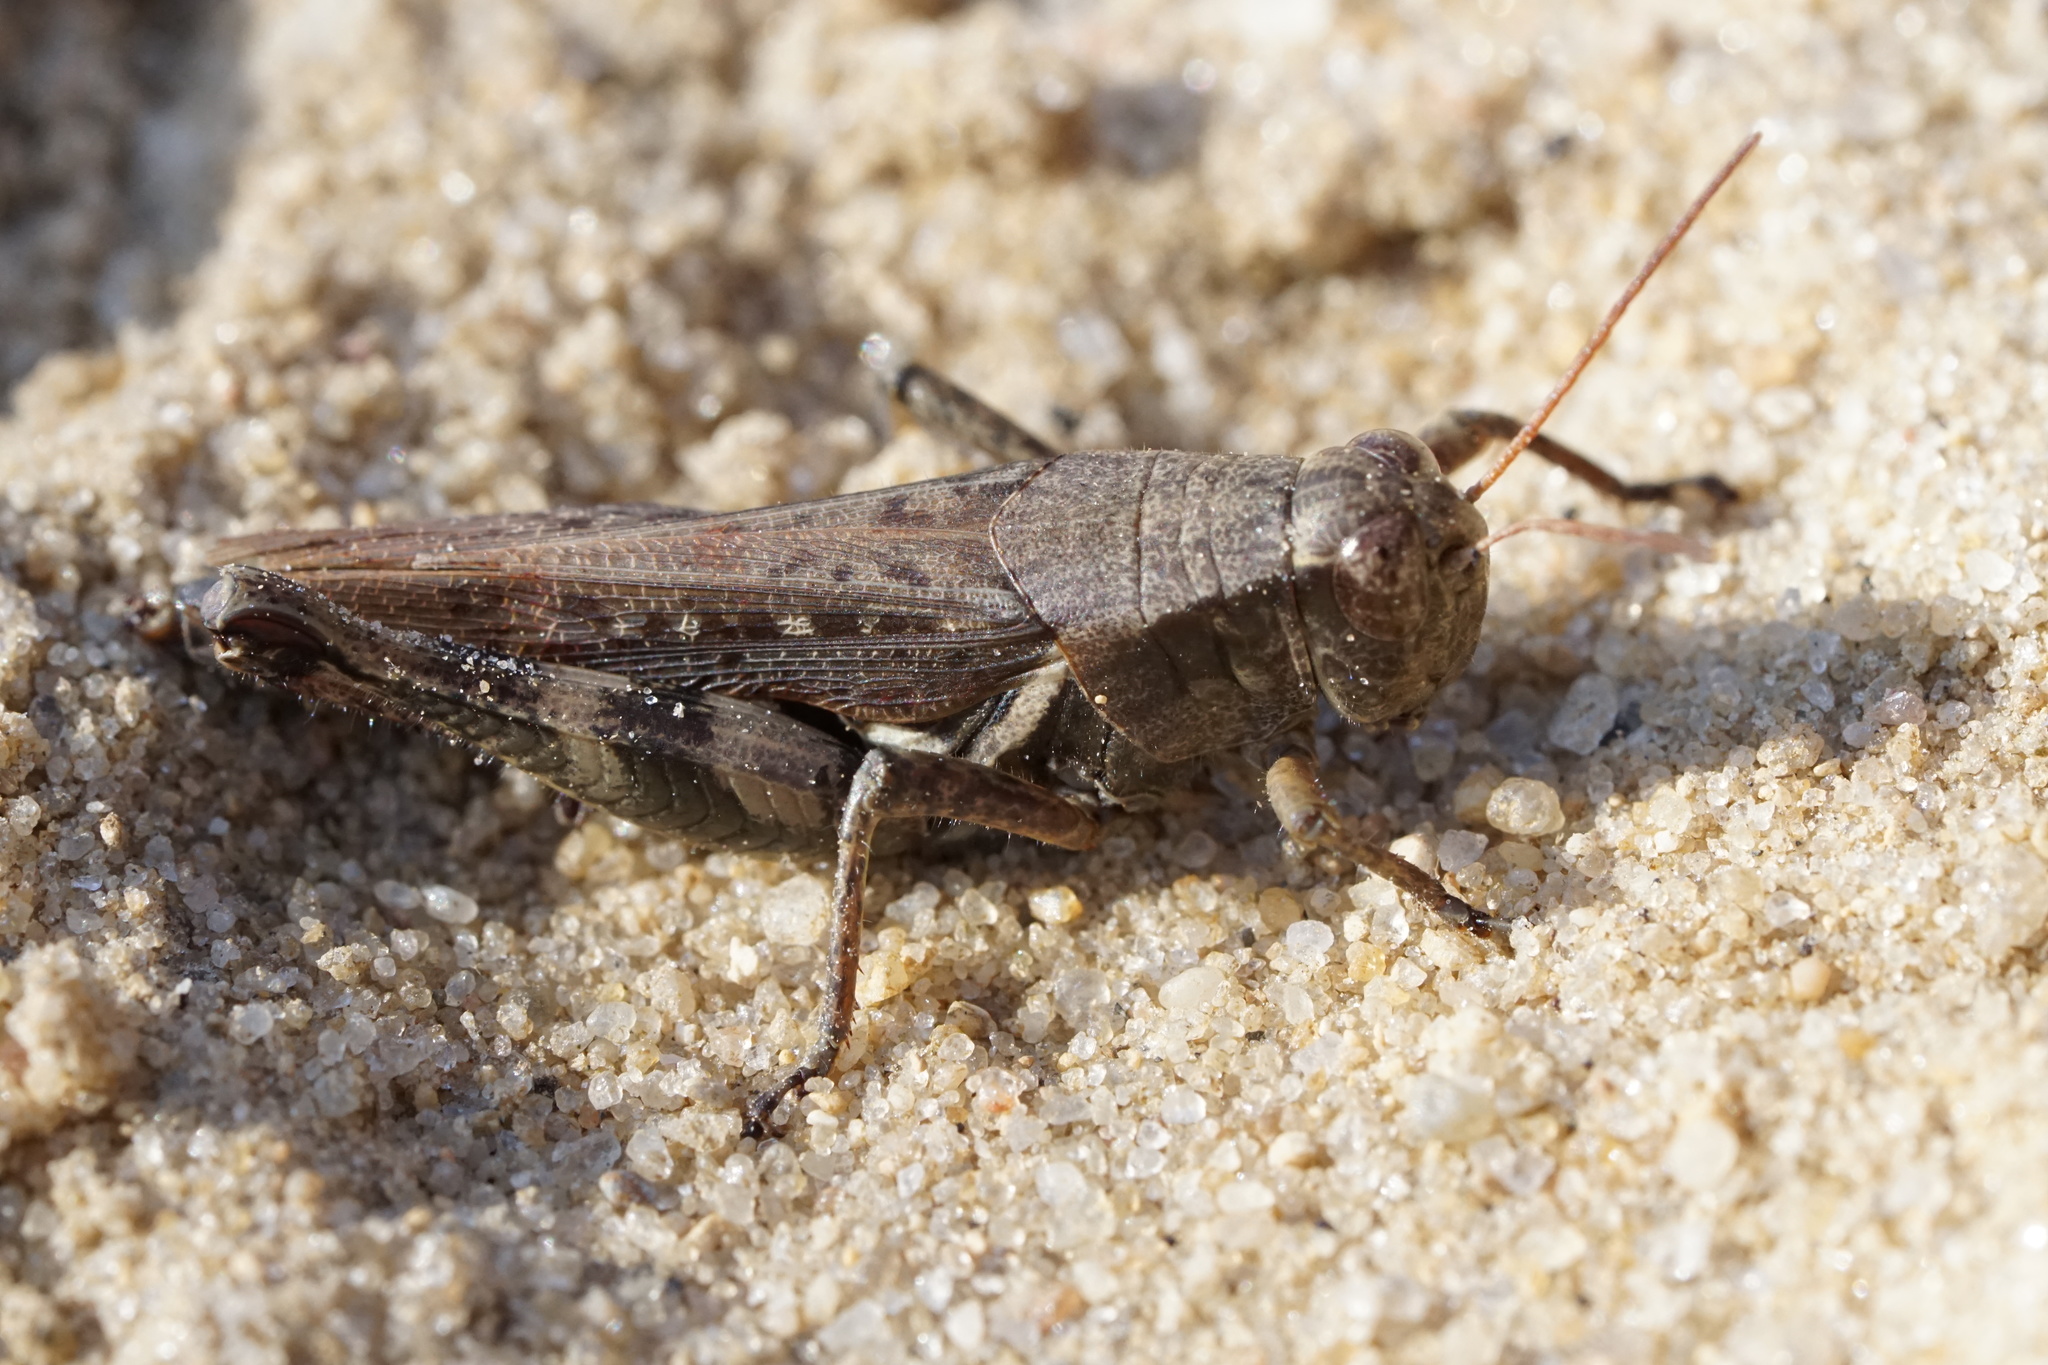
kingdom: Animalia
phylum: Arthropoda
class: Insecta
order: Orthoptera
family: Acrididae
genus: Melanoplus
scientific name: Melanoplus keeleri
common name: Keeler grasshopper
